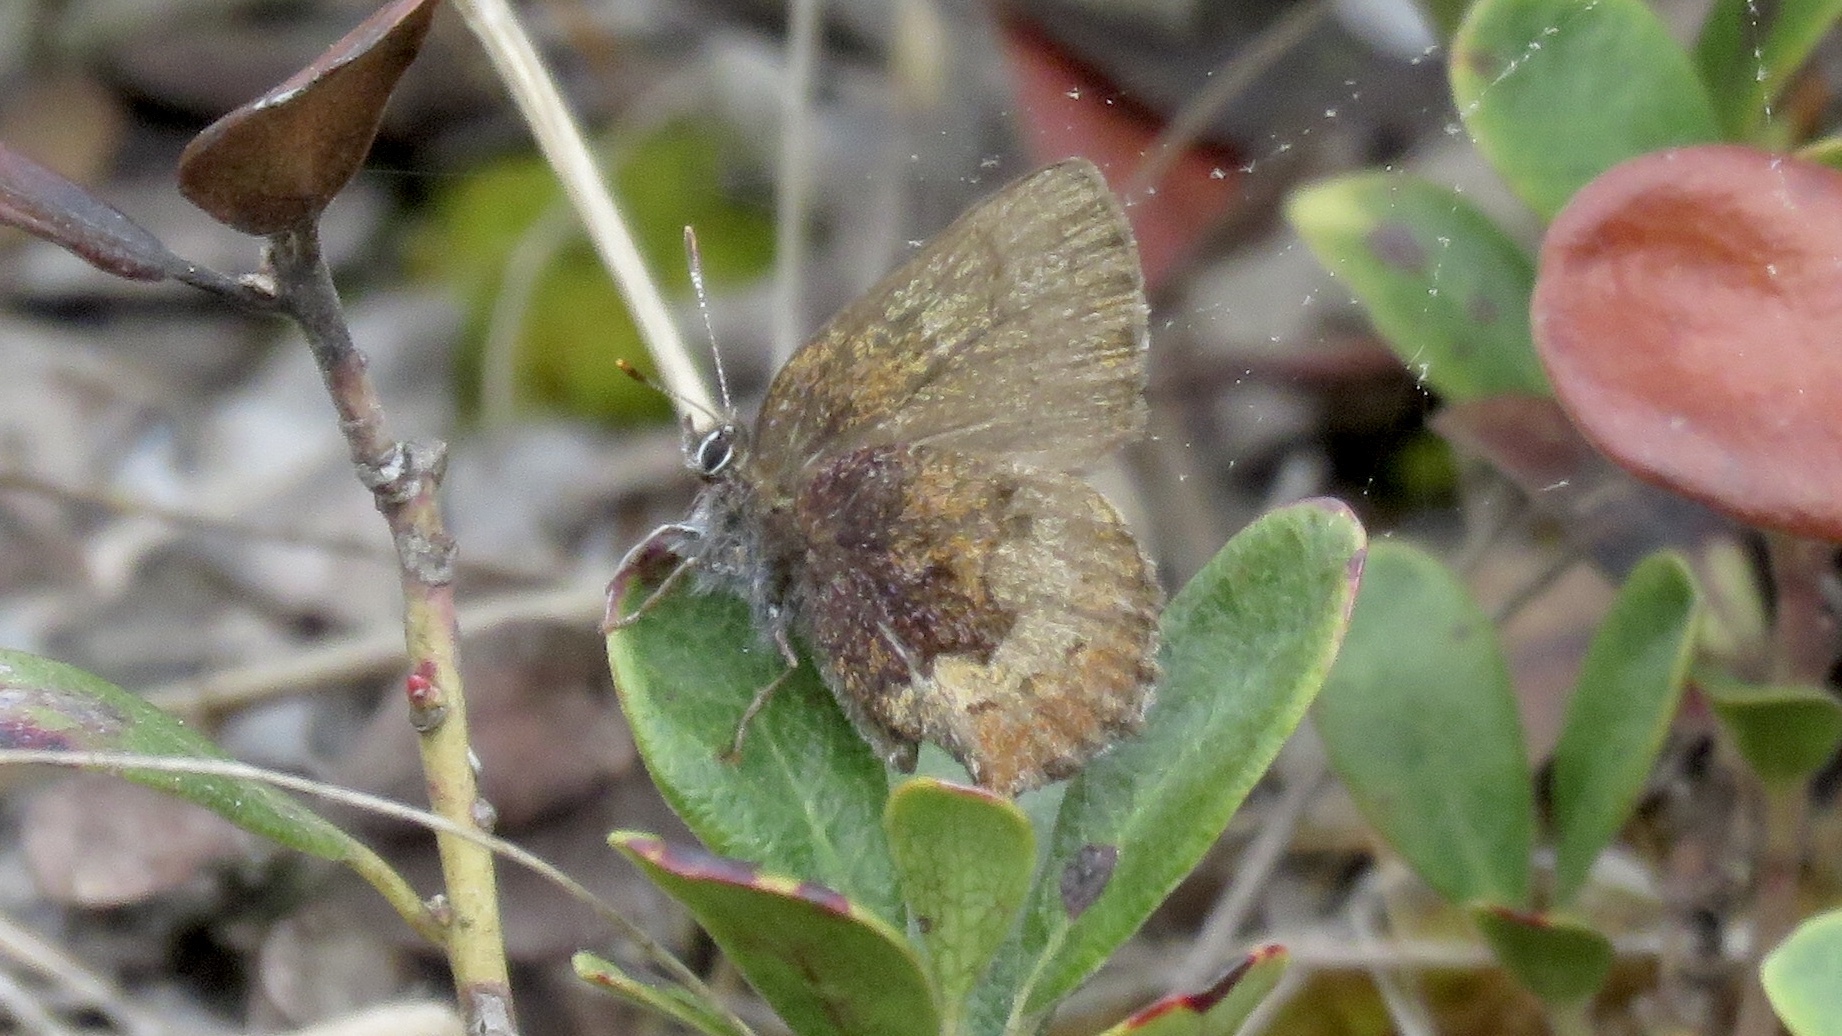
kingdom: Animalia
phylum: Arthropoda
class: Insecta
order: Lepidoptera
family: Lycaenidae
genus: Incisalia
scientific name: Incisalia irioides
